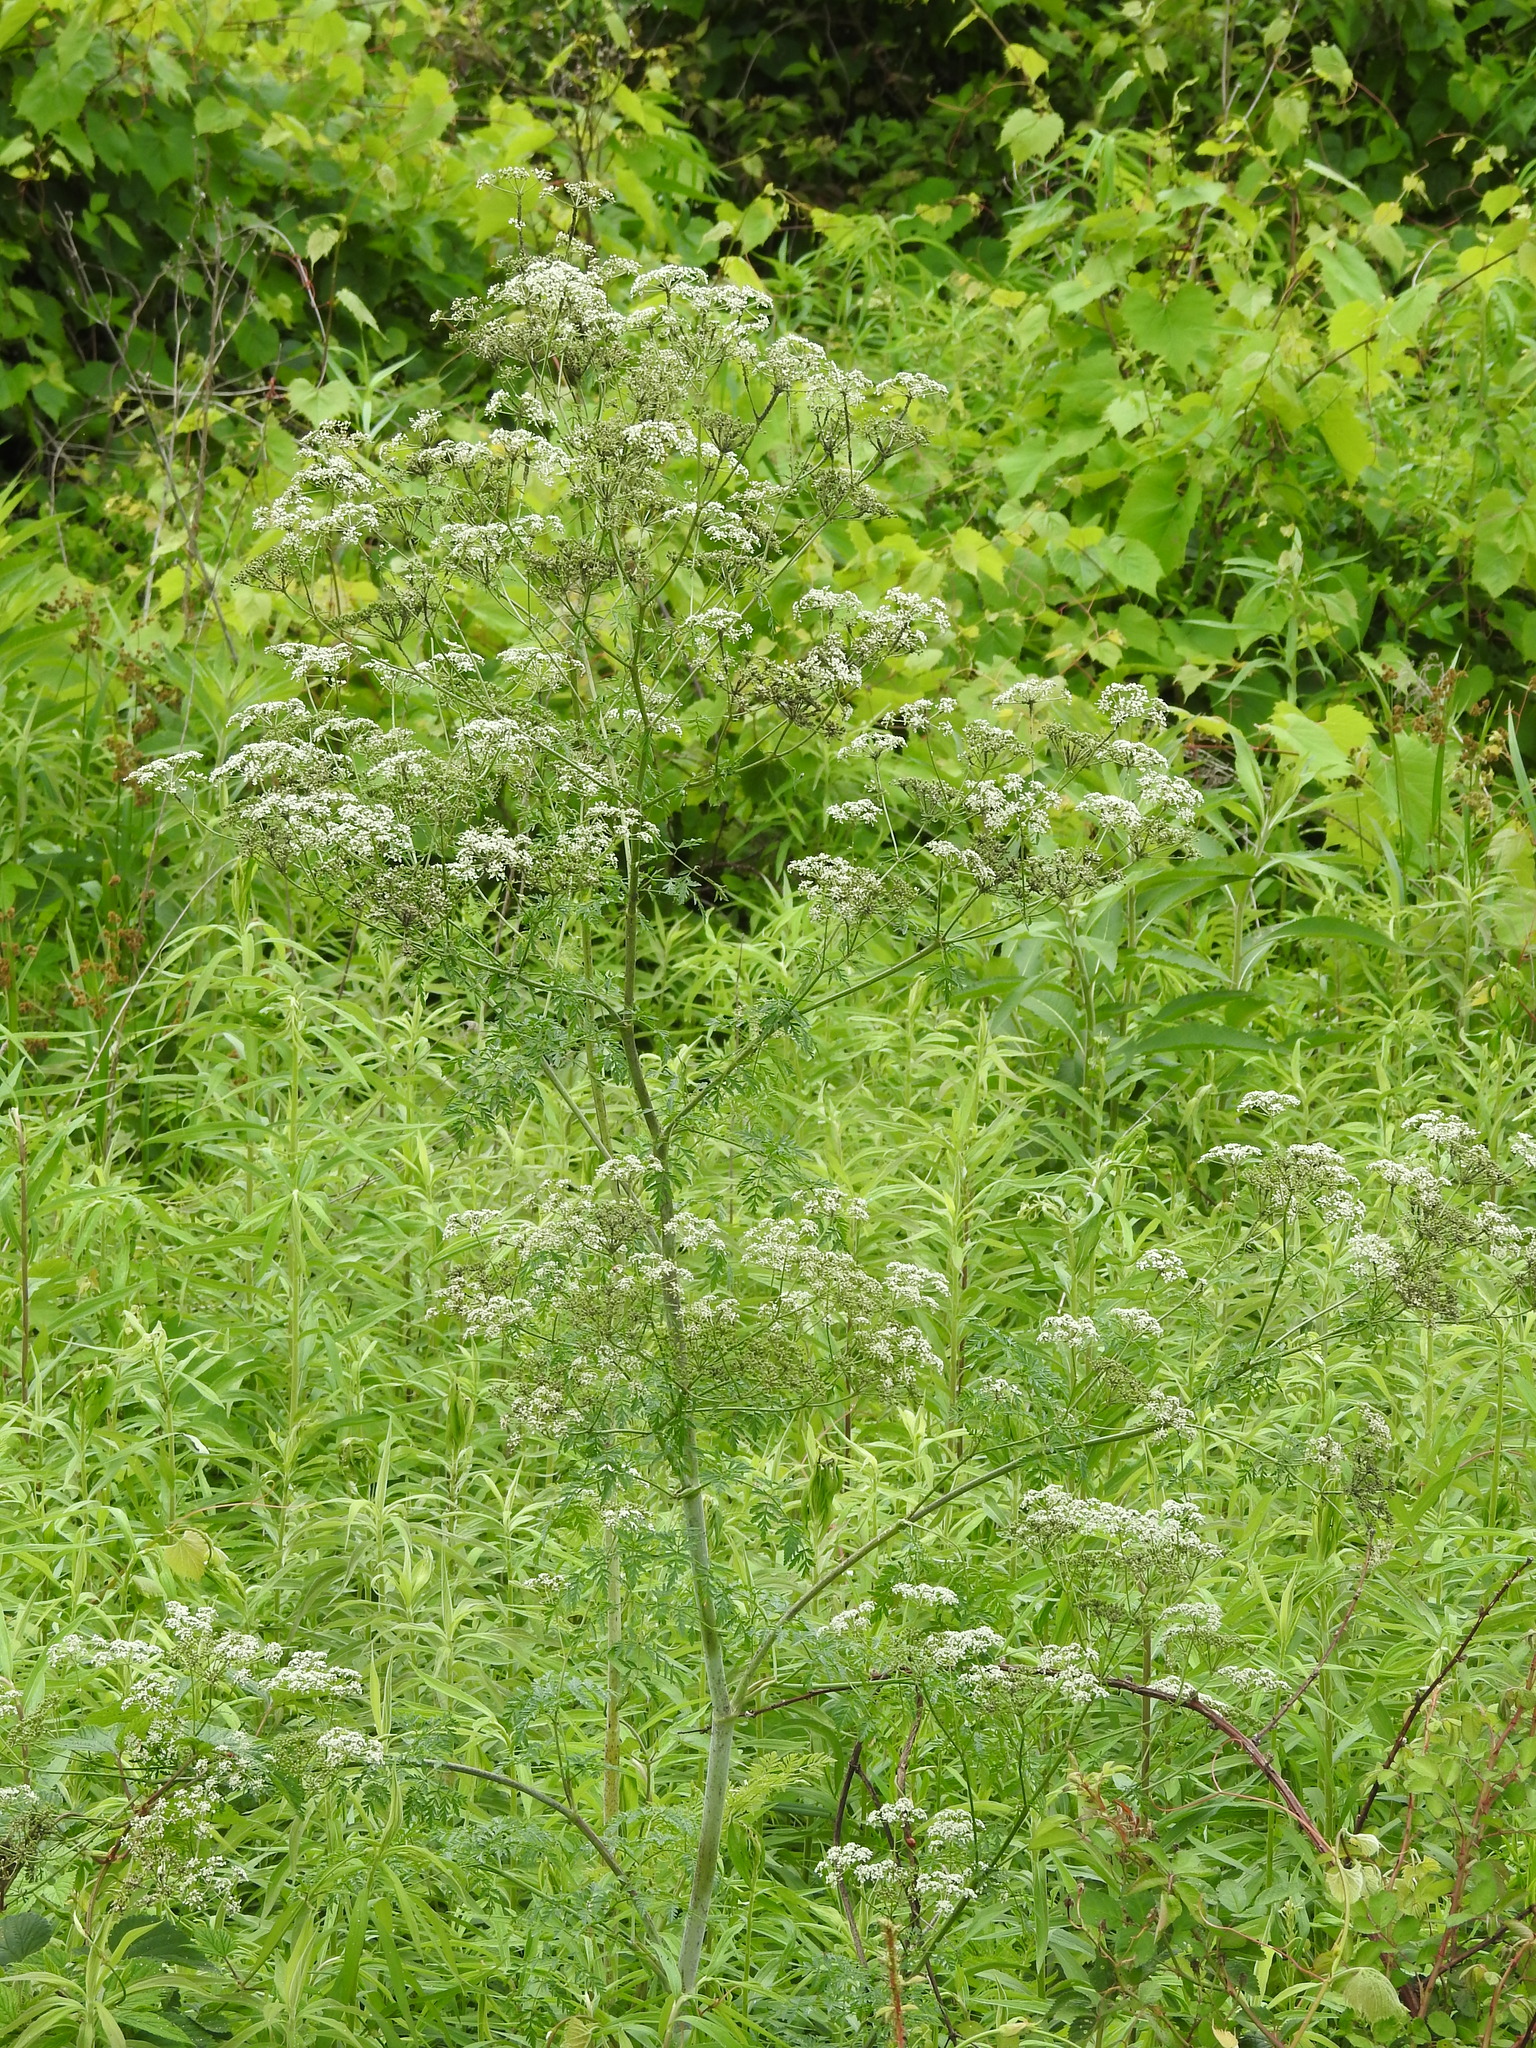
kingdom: Plantae
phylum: Tracheophyta
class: Magnoliopsida
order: Apiales
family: Apiaceae
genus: Conium
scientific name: Conium maculatum
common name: Hemlock
